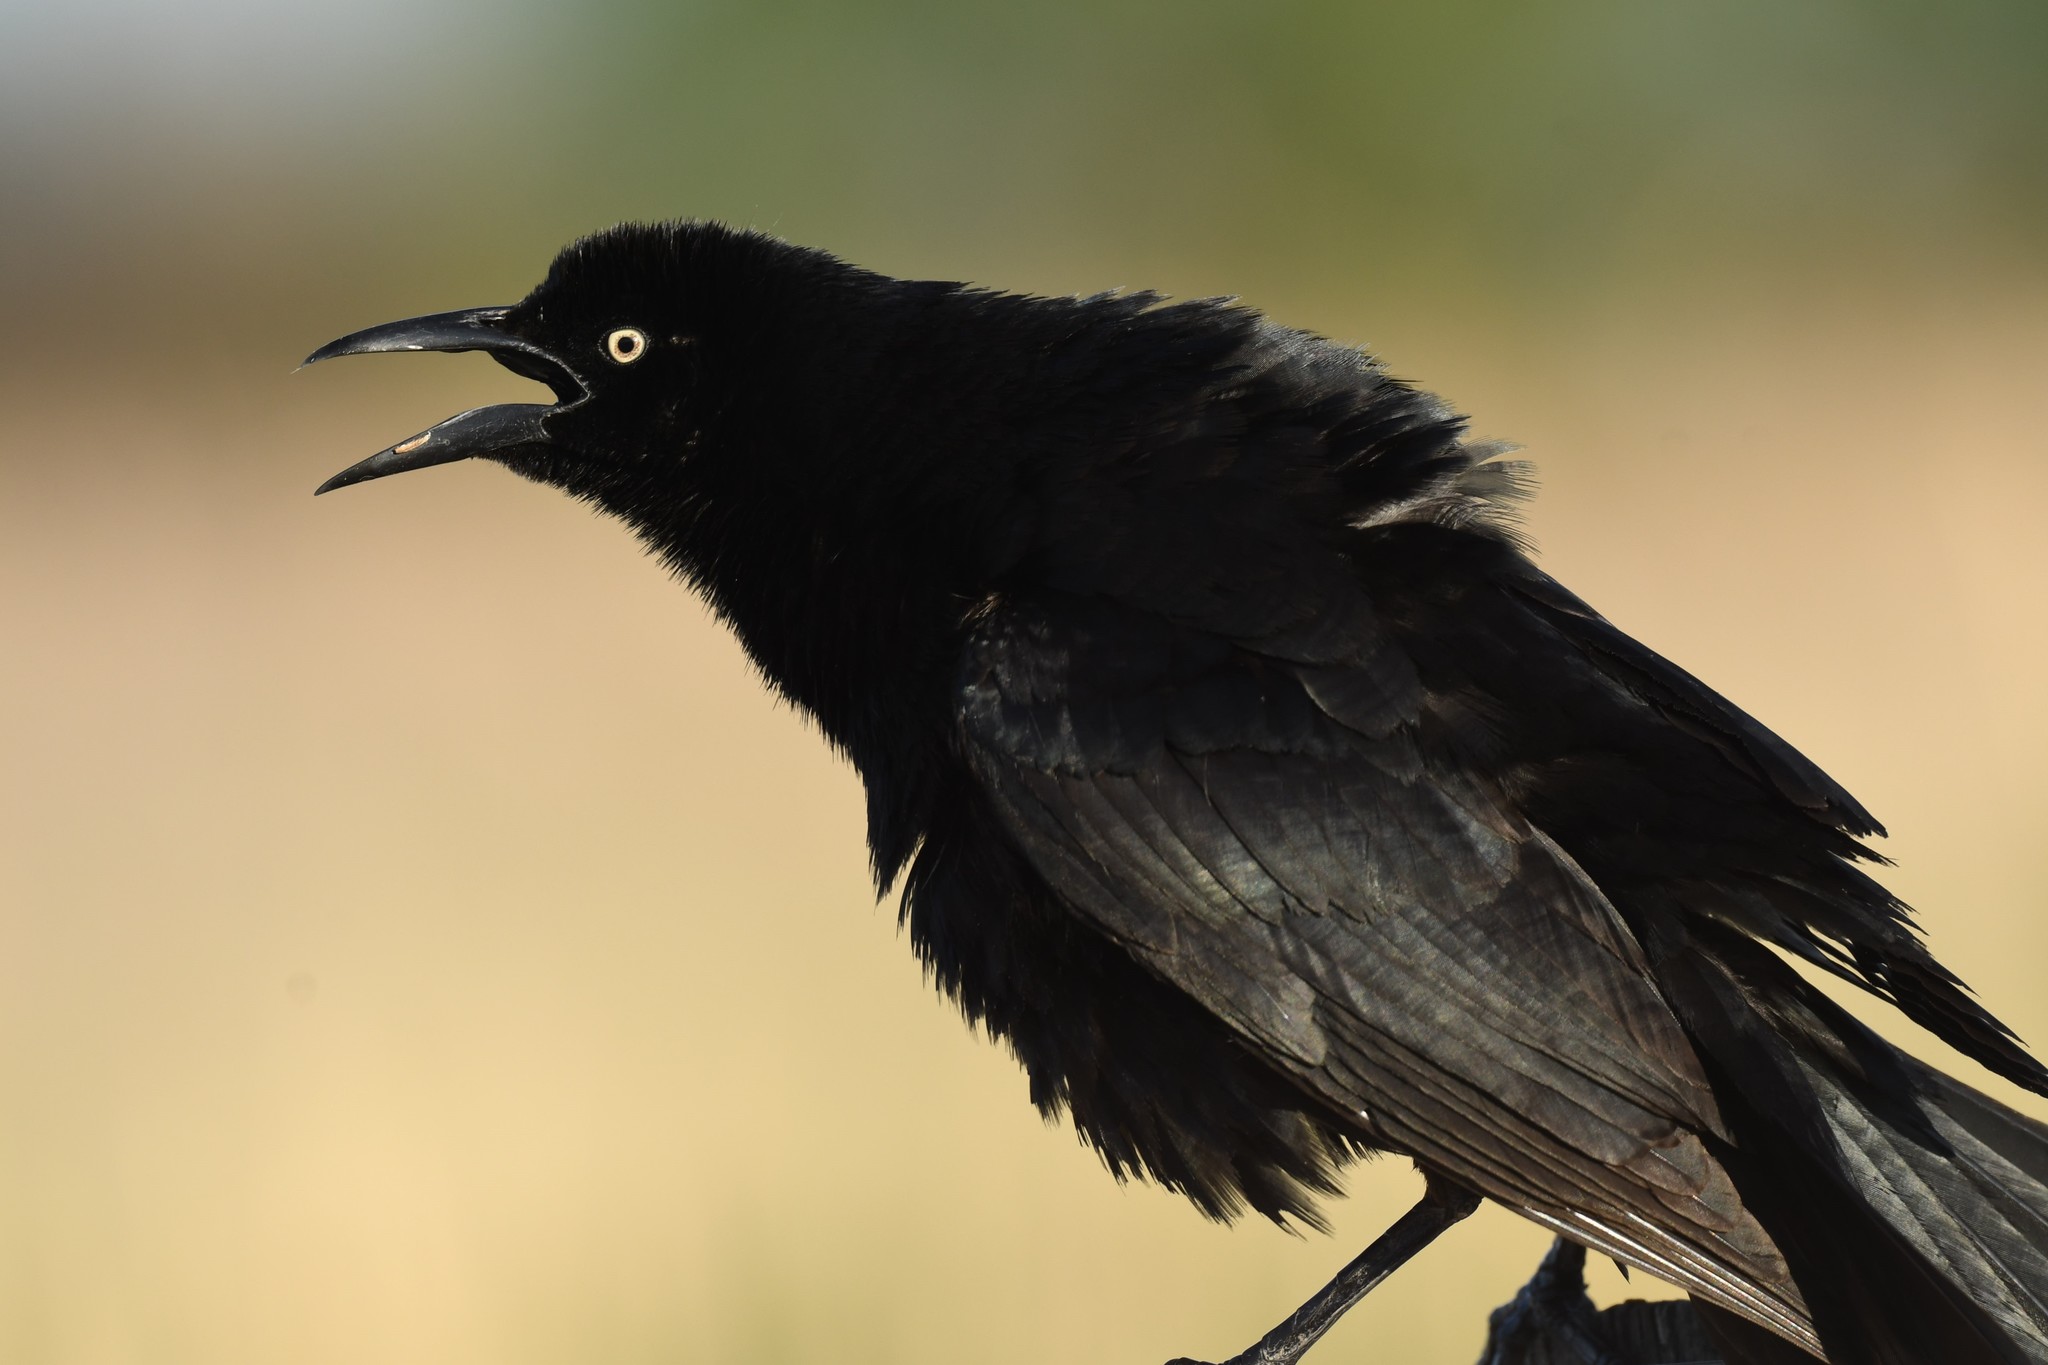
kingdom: Animalia
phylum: Chordata
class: Aves
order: Passeriformes
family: Icteridae
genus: Quiscalus
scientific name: Quiscalus mexicanus
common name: Great-tailed grackle
